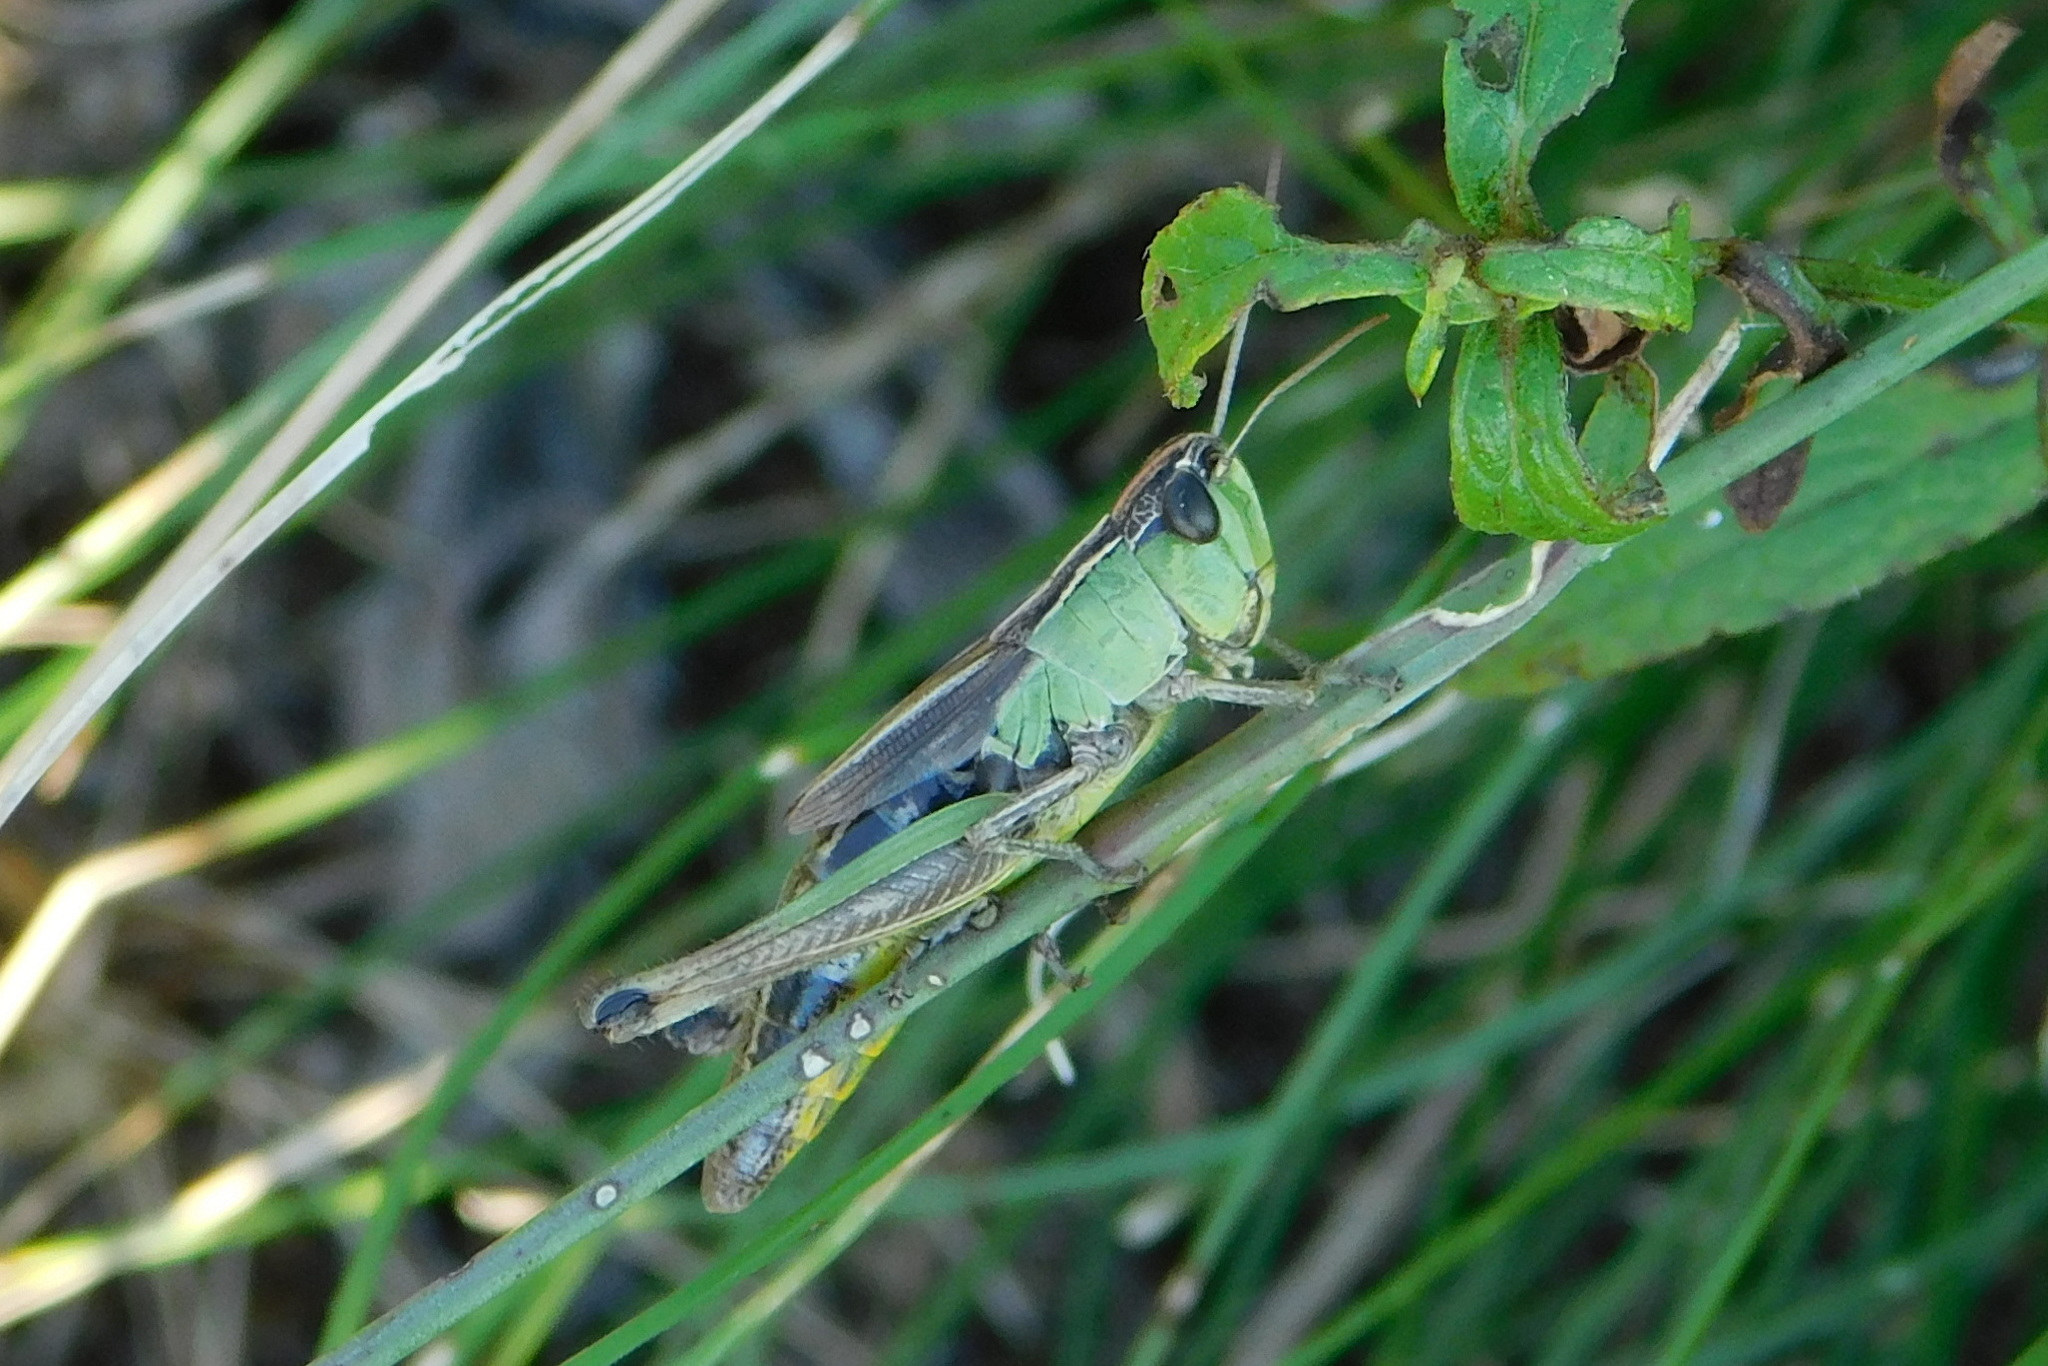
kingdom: Animalia
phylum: Arthropoda
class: Insecta
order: Orthoptera
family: Acrididae
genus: Pseudochorthippus
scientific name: Pseudochorthippus parallelus
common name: Meadow grasshopper
